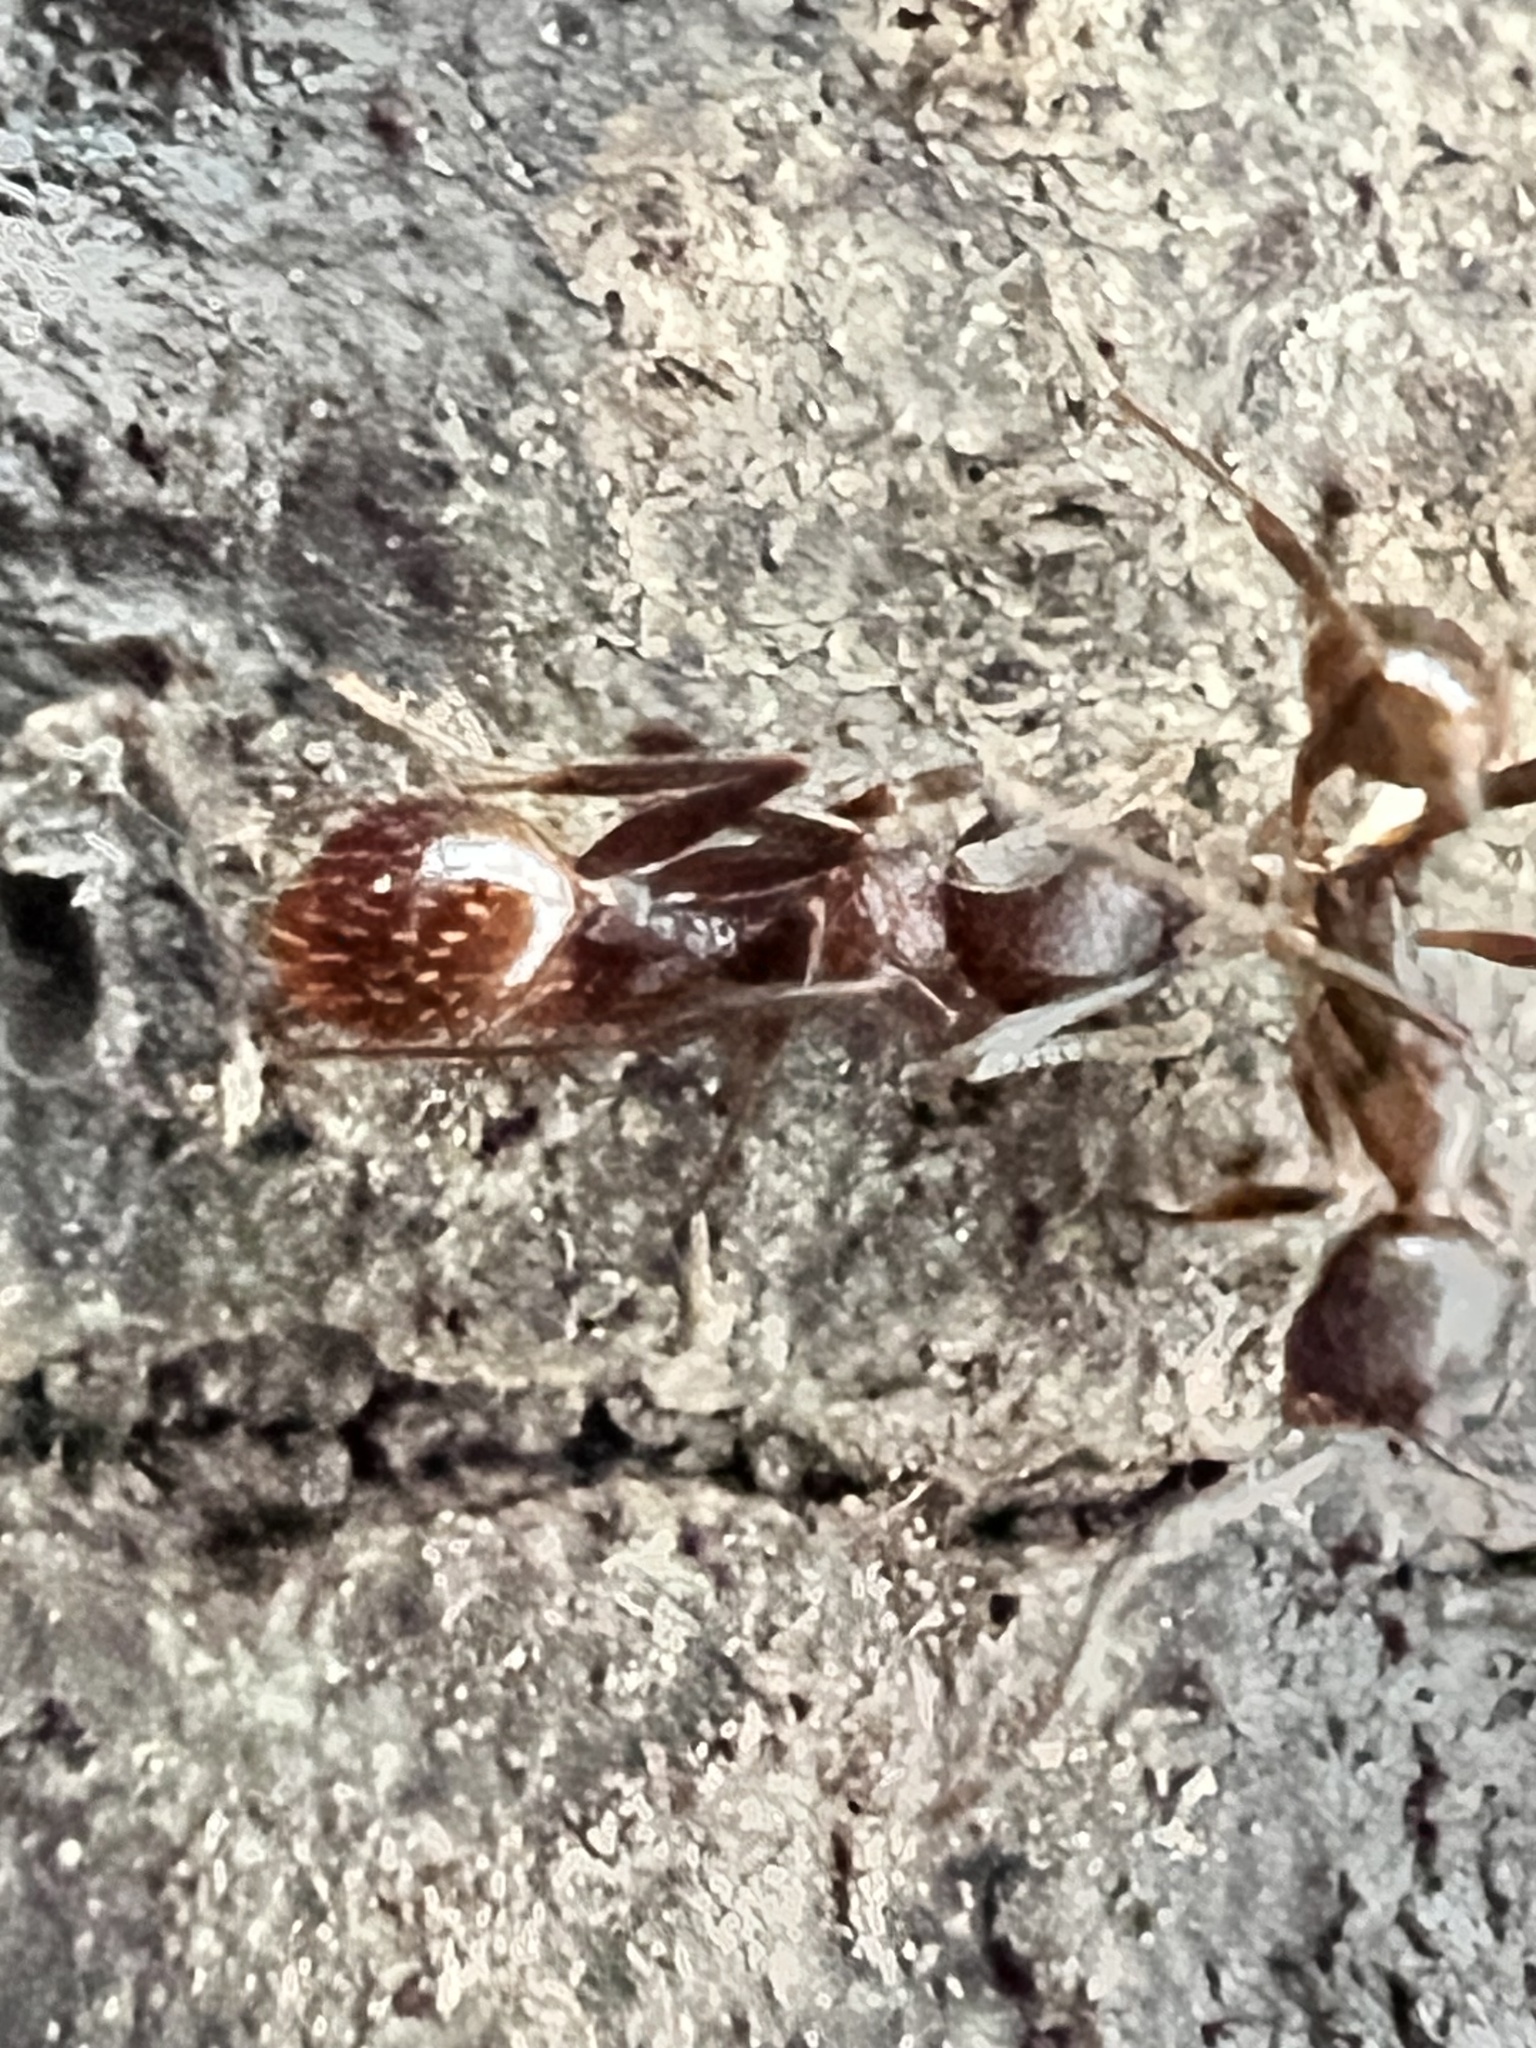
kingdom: Animalia
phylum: Arthropoda
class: Insecta
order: Hymenoptera
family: Formicidae
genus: Aphaenogaster
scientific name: Aphaenogaster fulva
